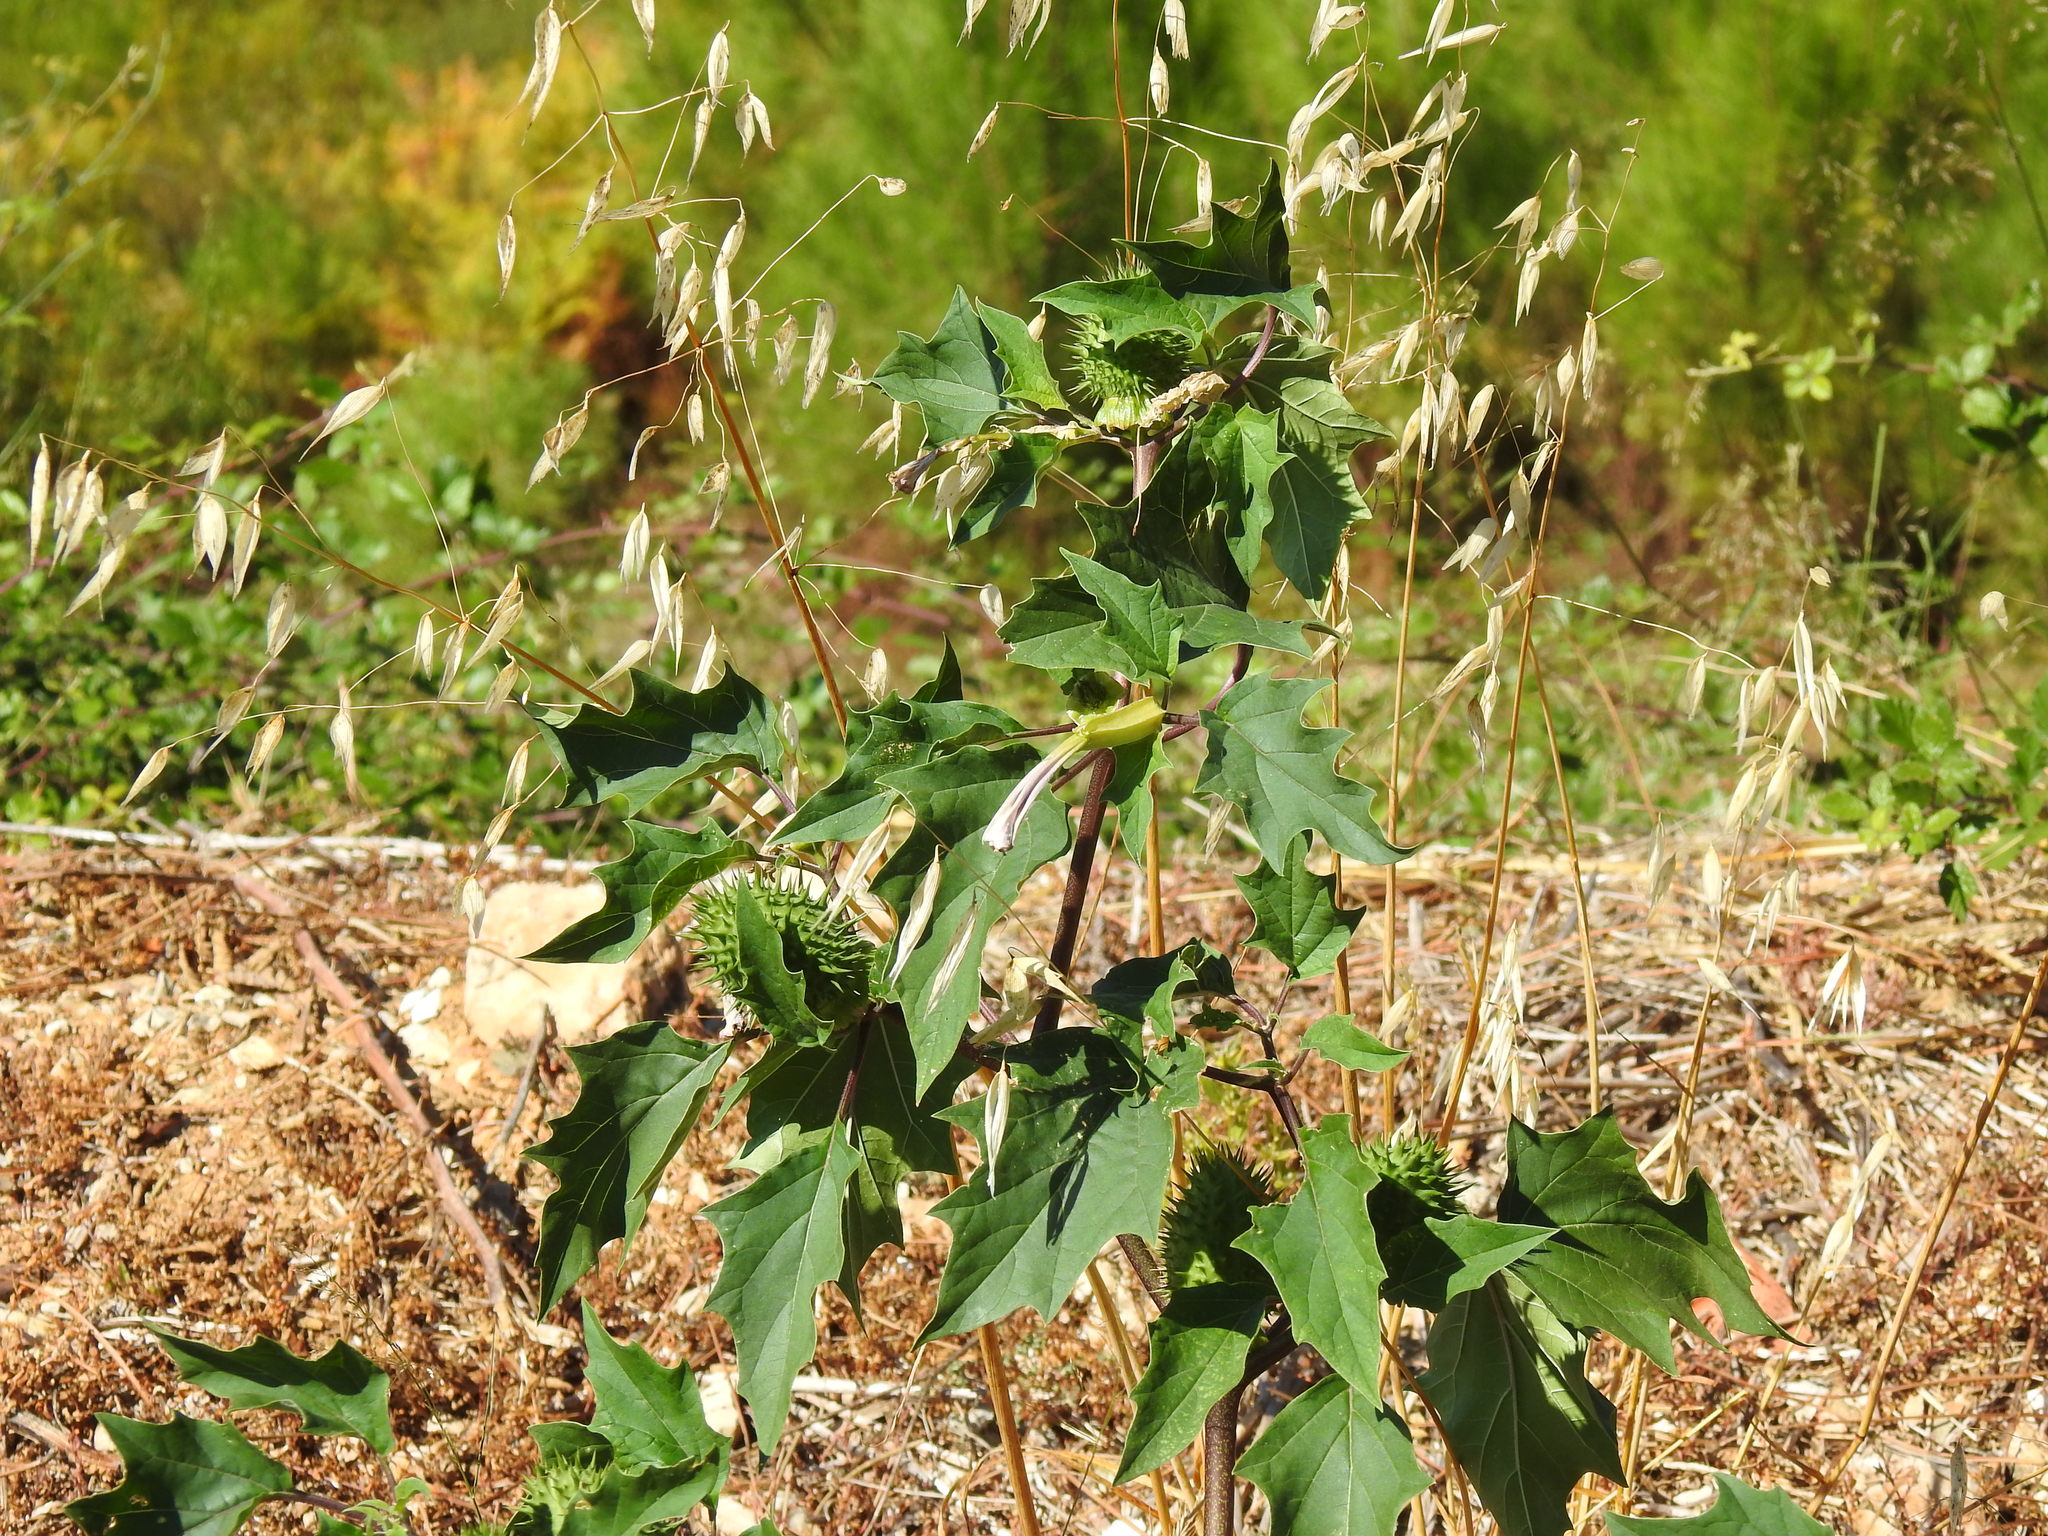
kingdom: Plantae
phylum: Tracheophyta
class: Magnoliopsida
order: Solanales
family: Solanaceae
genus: Datura
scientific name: Datura stramonium
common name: Thorn-apple
